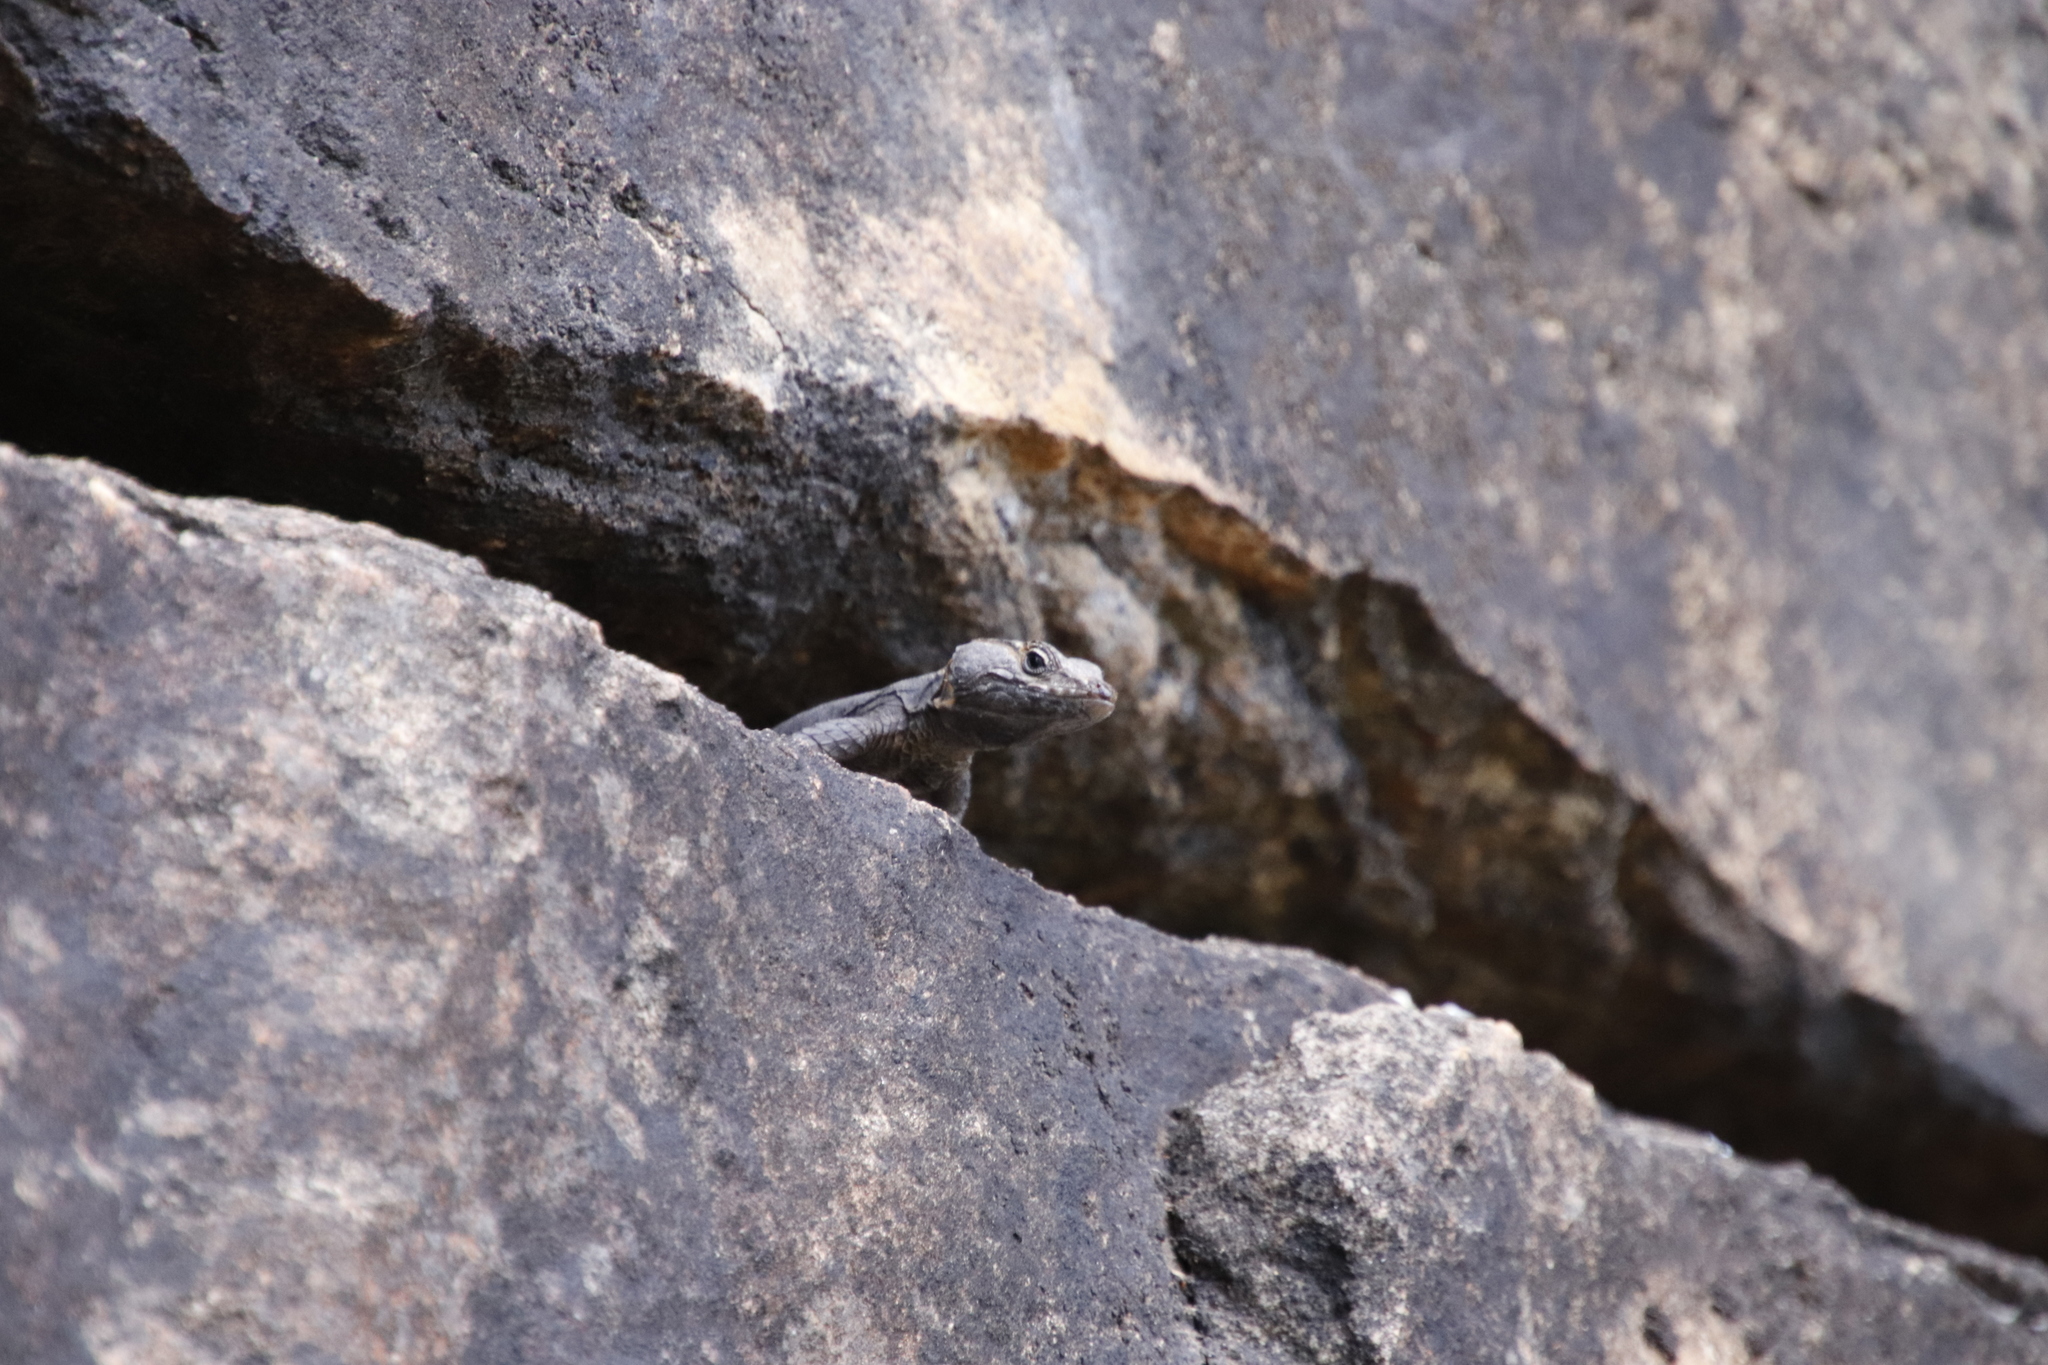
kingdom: Animalia
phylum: Chordata
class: Squamata
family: Cordylidae
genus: Hemicordylus
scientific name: Hemicordylus capensis
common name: Graceful crag lizard
